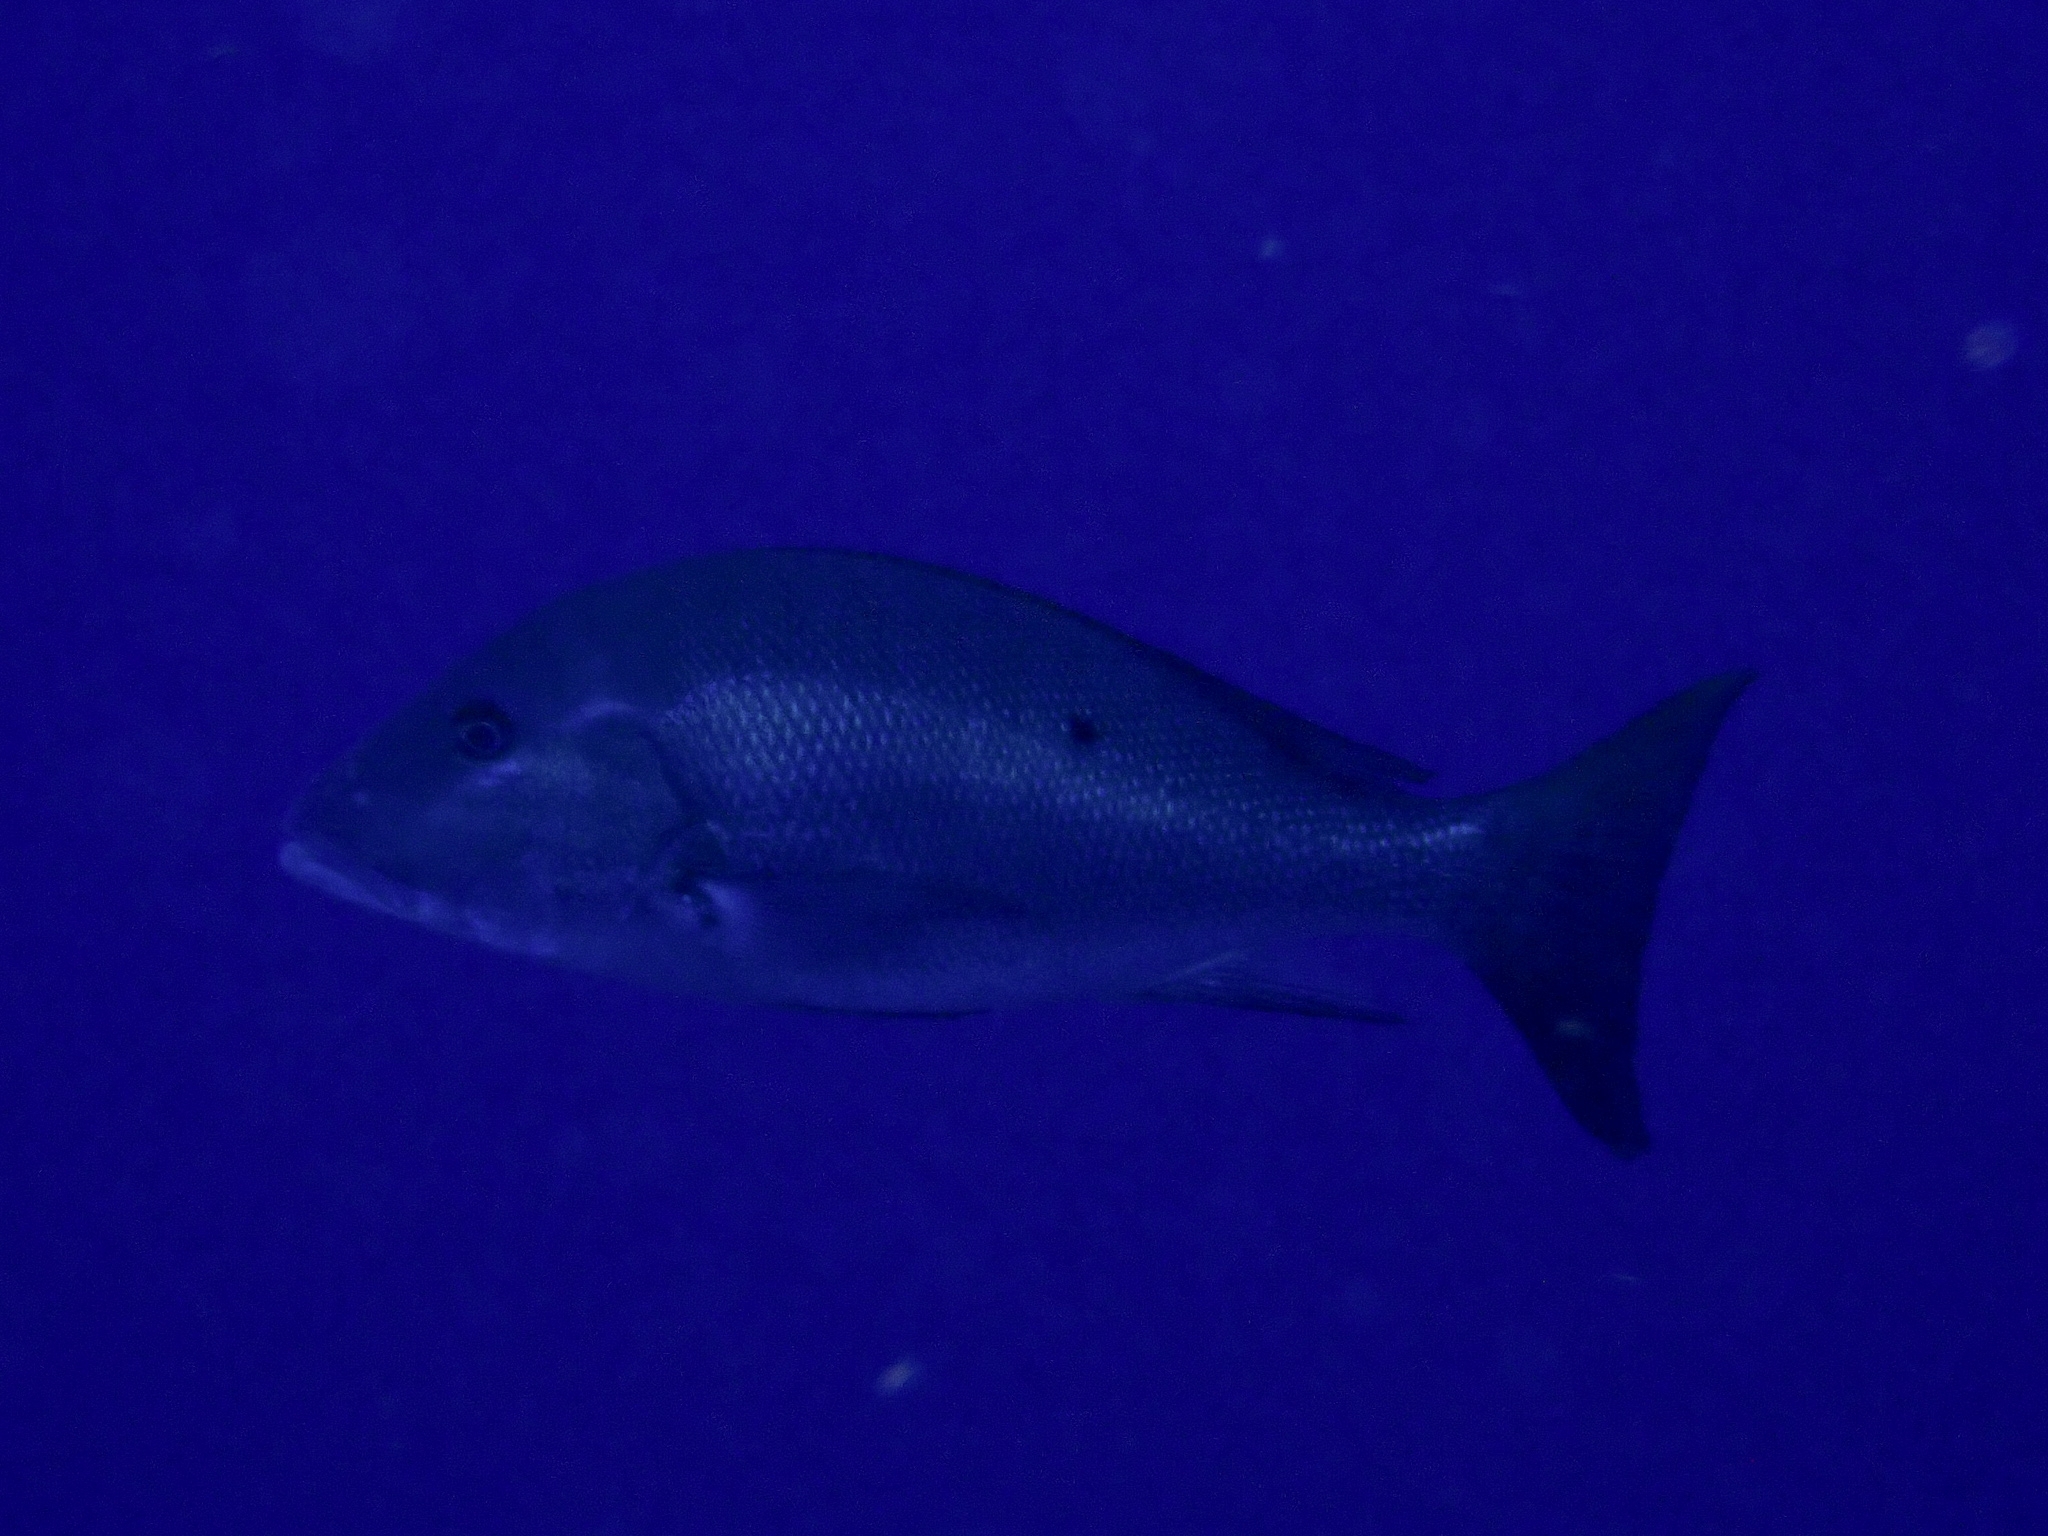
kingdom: Animalia
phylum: Chordata
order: Perciformes
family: Lutjanidae
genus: Lutjanus
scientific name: Lutjanus analis
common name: Mutton snapper
